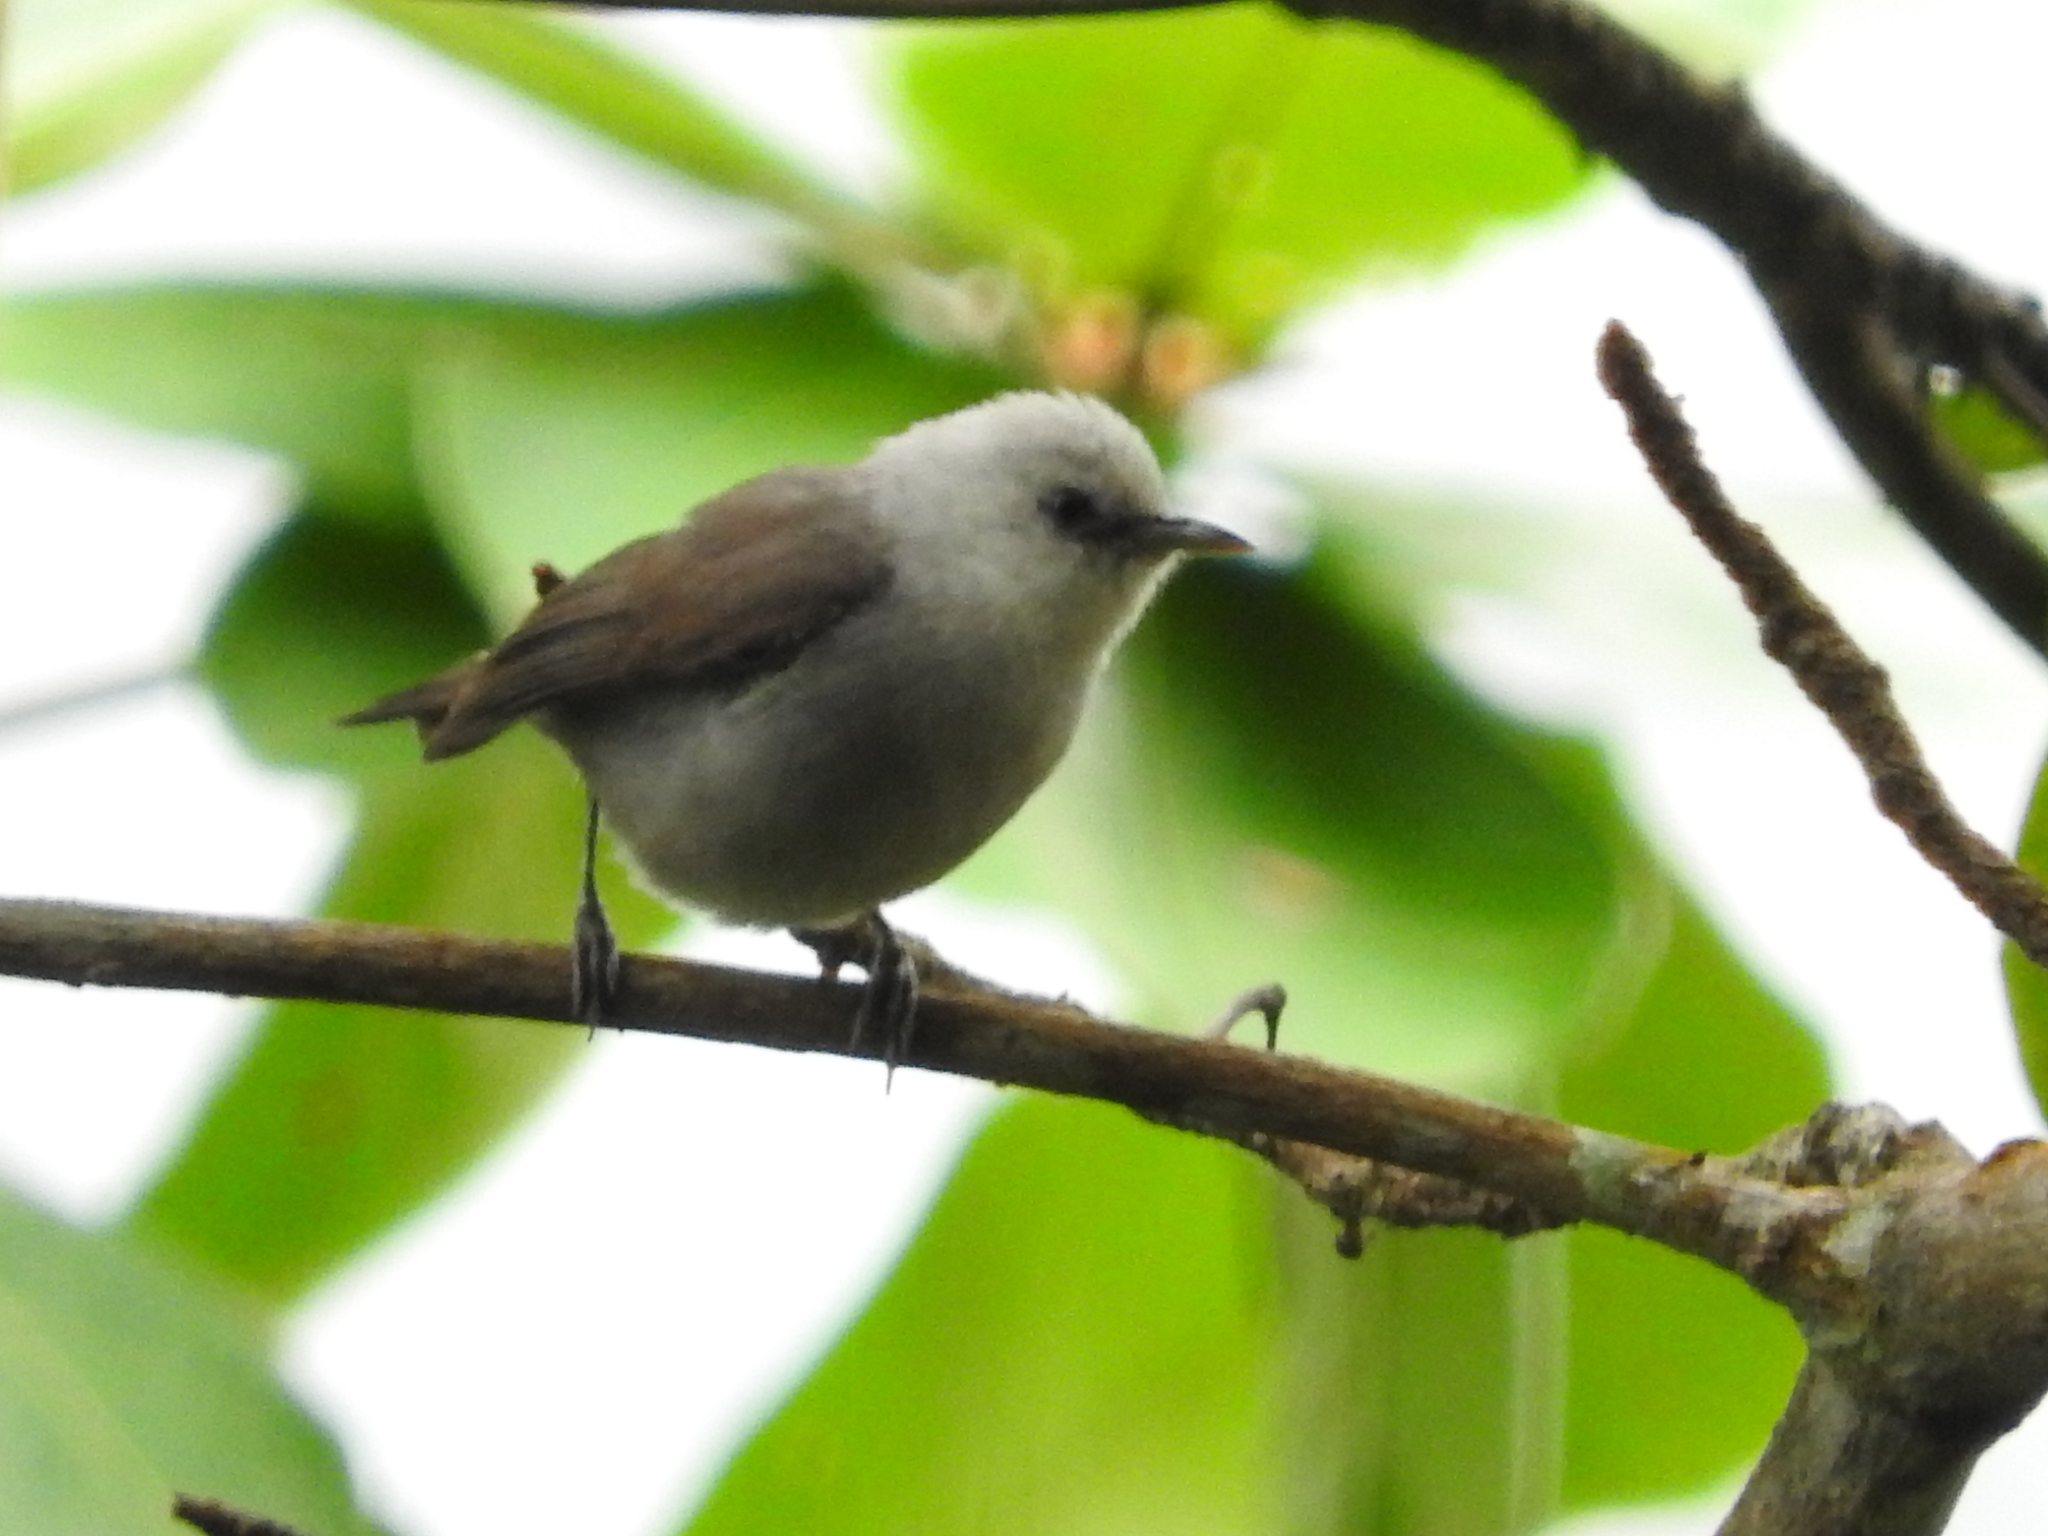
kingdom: Animalia
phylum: Chordata
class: Aves
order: Passeriformes
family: Zosteropidae
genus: Zosterops
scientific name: Zosterops leucophaeus
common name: Principe speirops
